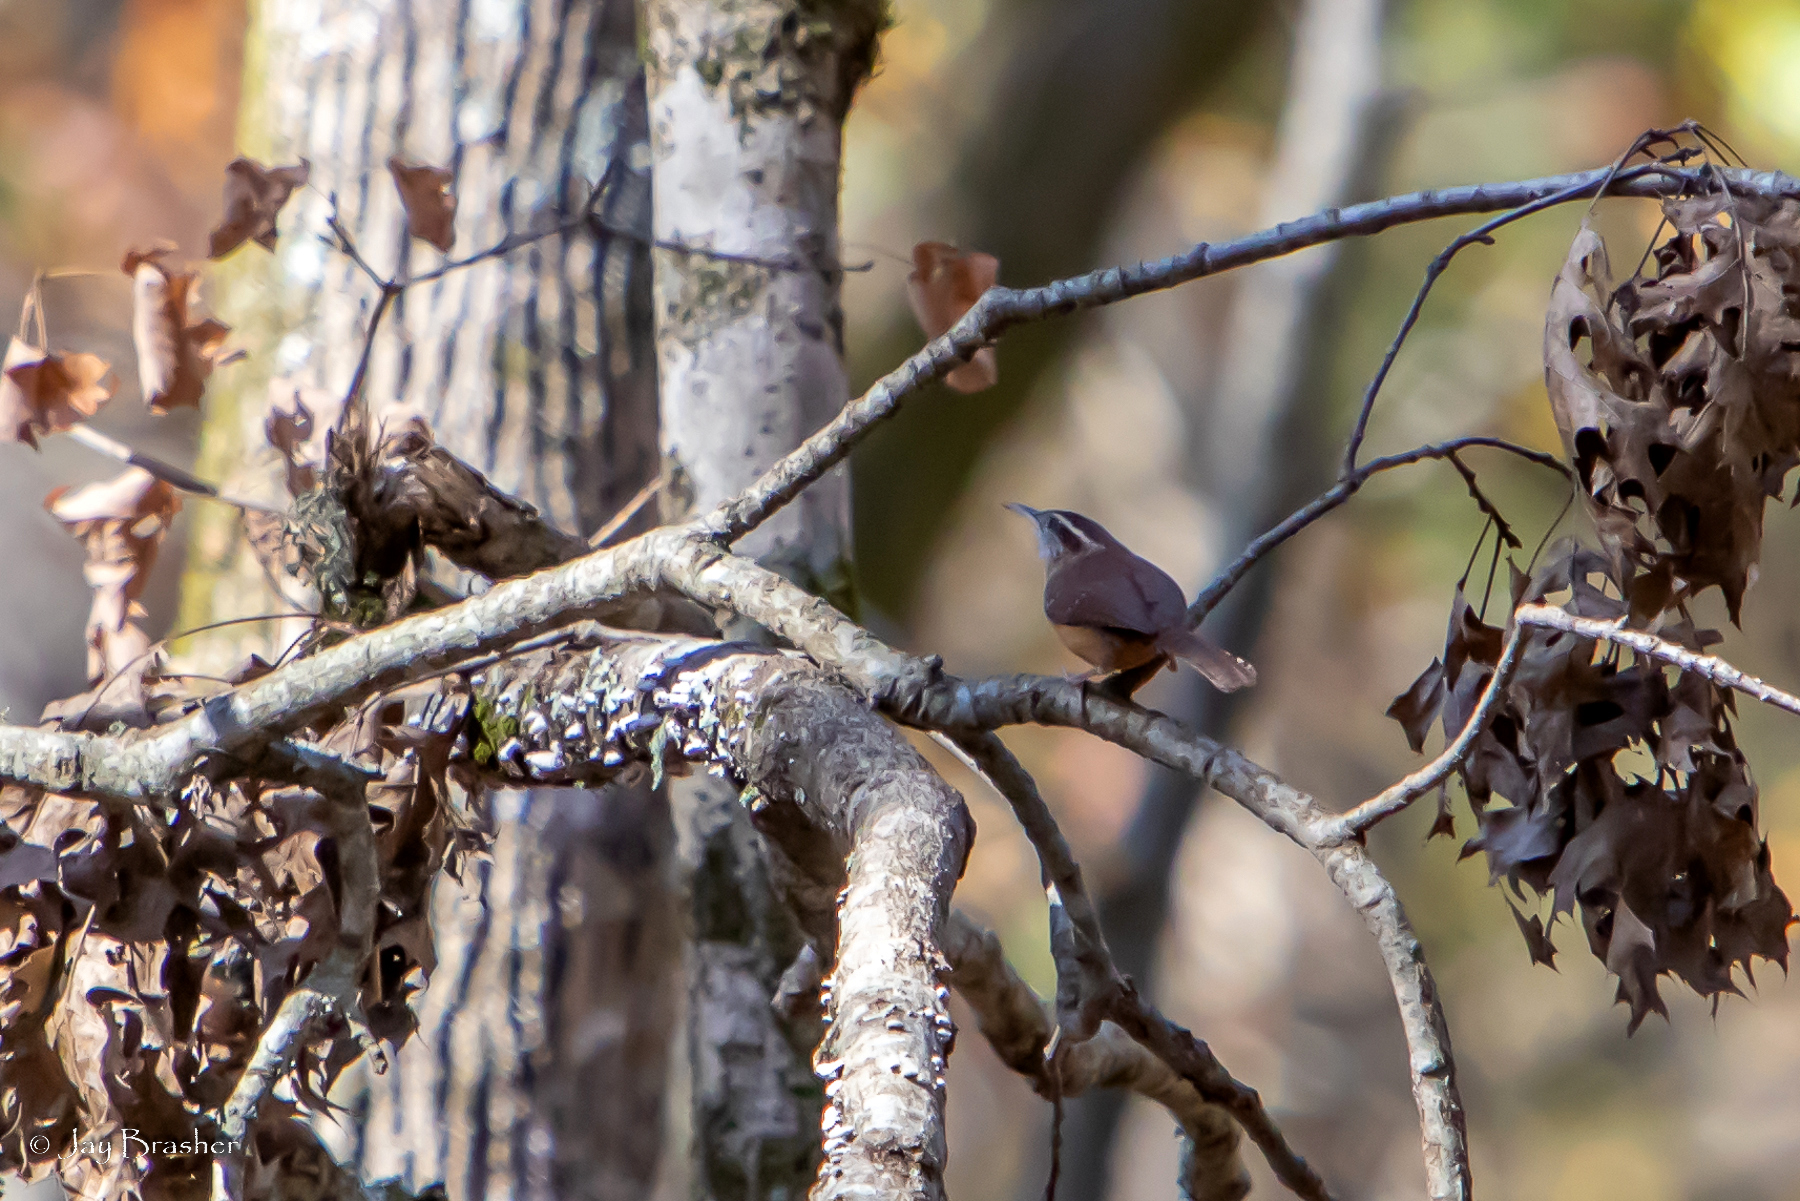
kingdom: Animalia
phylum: Chordata
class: Aves
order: Passeriformes
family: Troglodytidae
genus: Thryothorus
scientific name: Thryothorus ludovicianus
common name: Carolina wren
